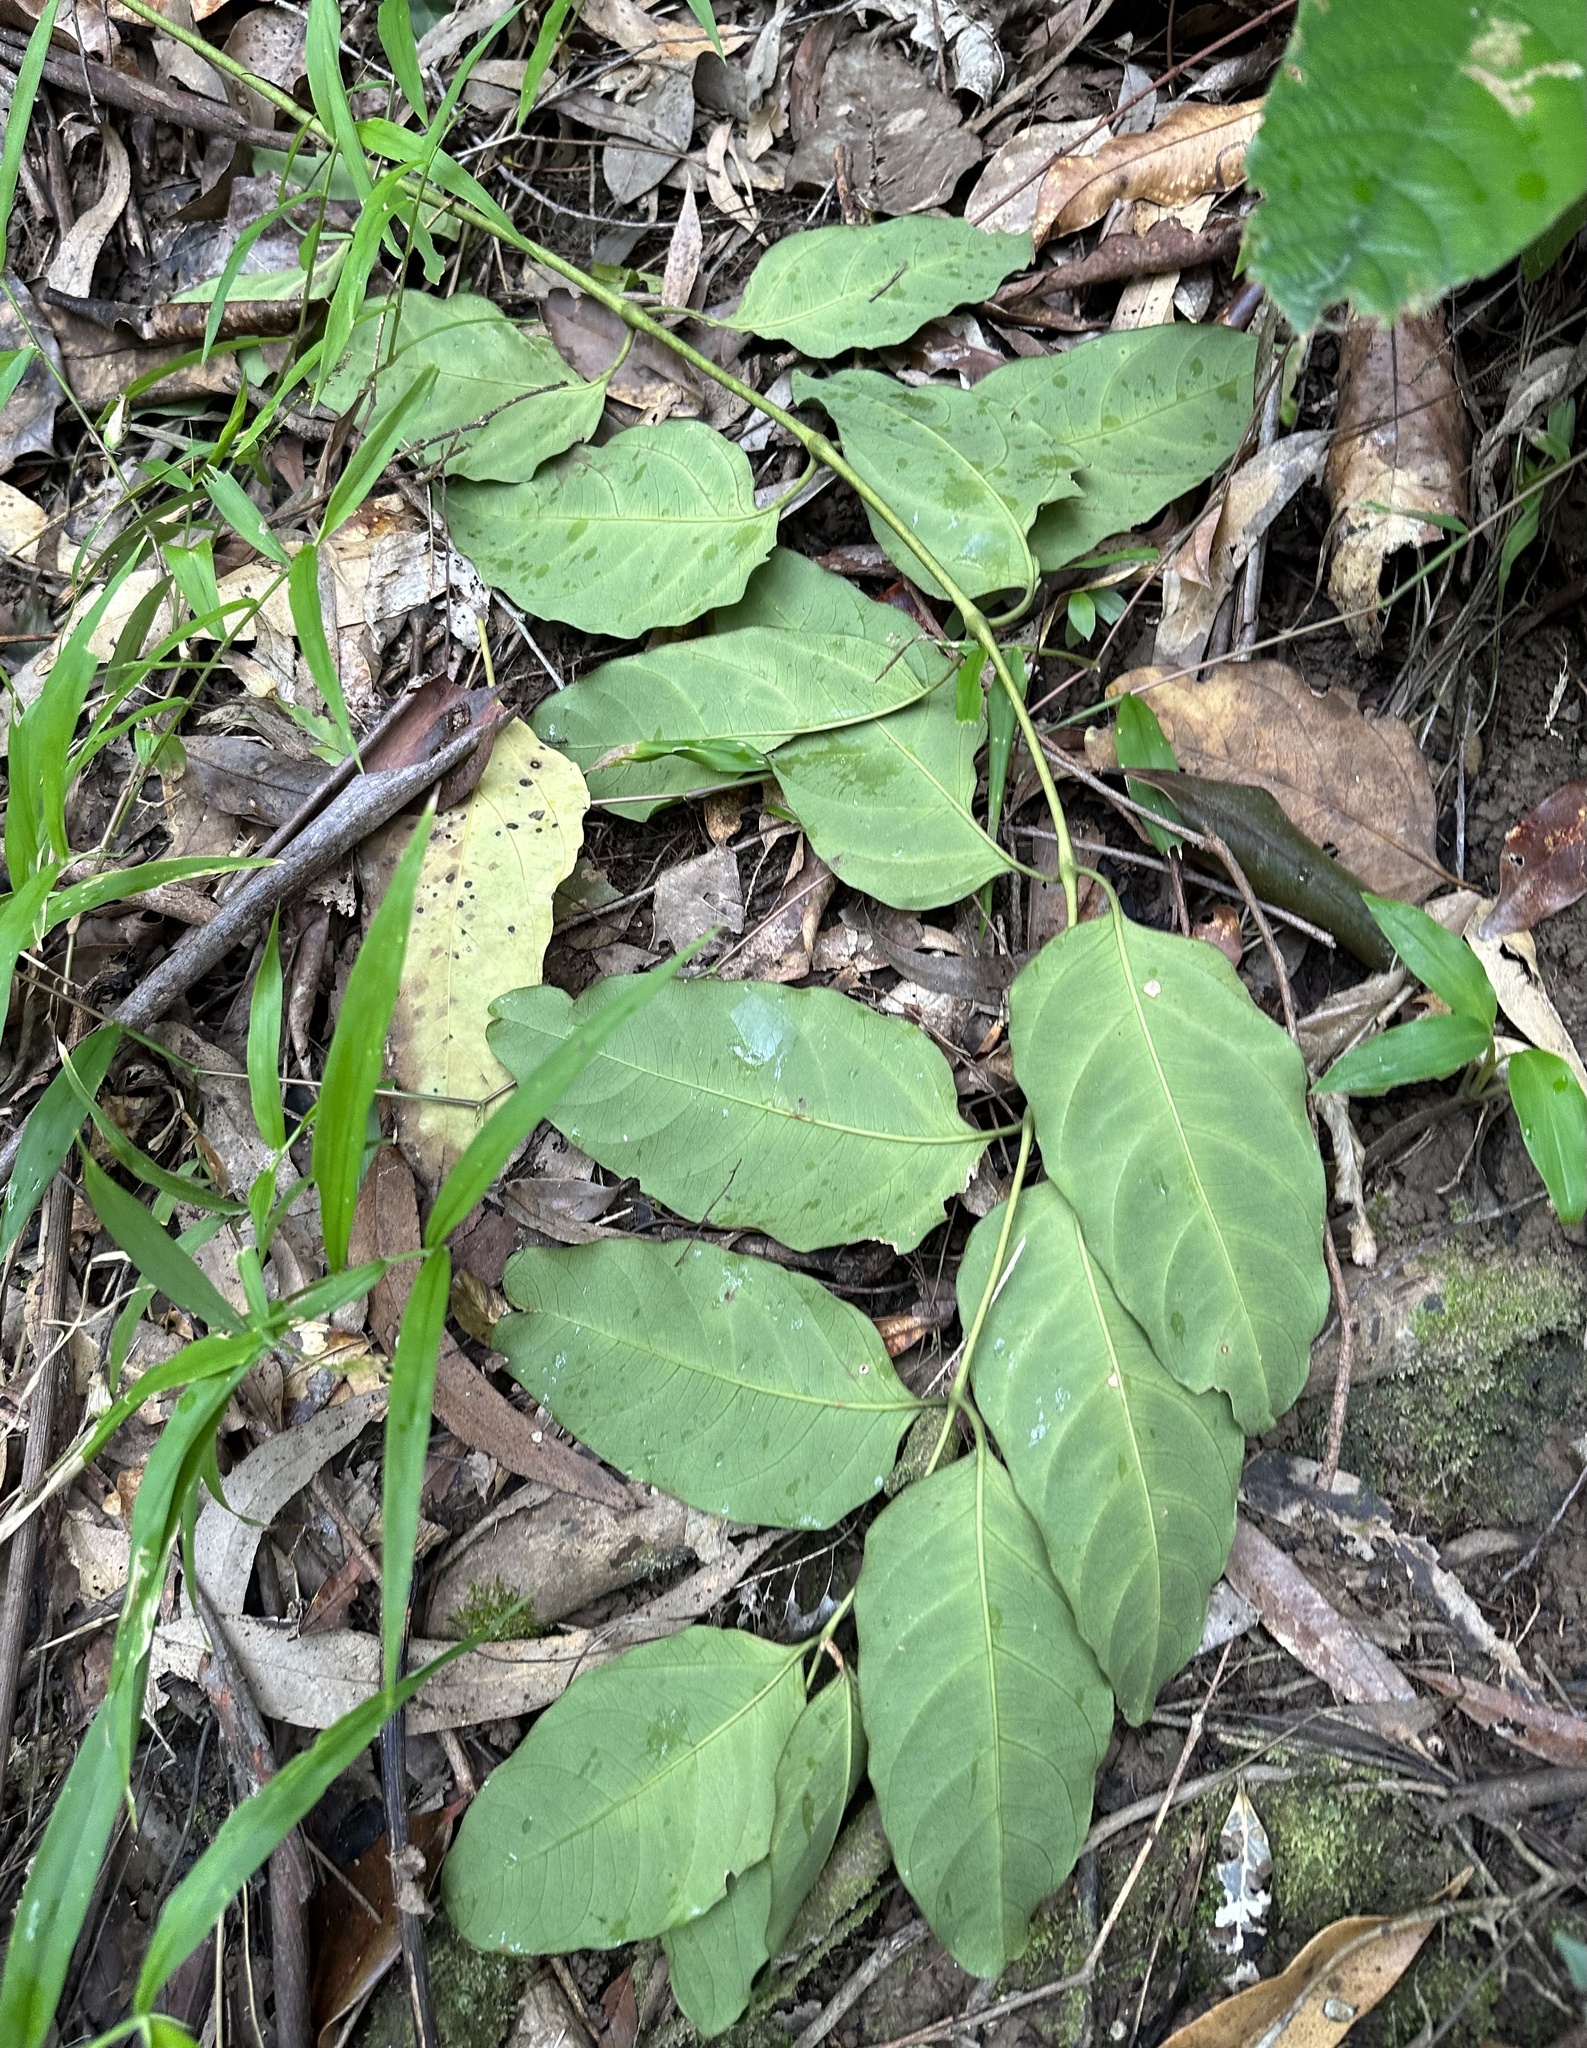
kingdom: Plantae
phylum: Tracheophyta
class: Magnoliopsida
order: Apiales
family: Araliaceae
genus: Polyscias
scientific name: Polyscias australiana
